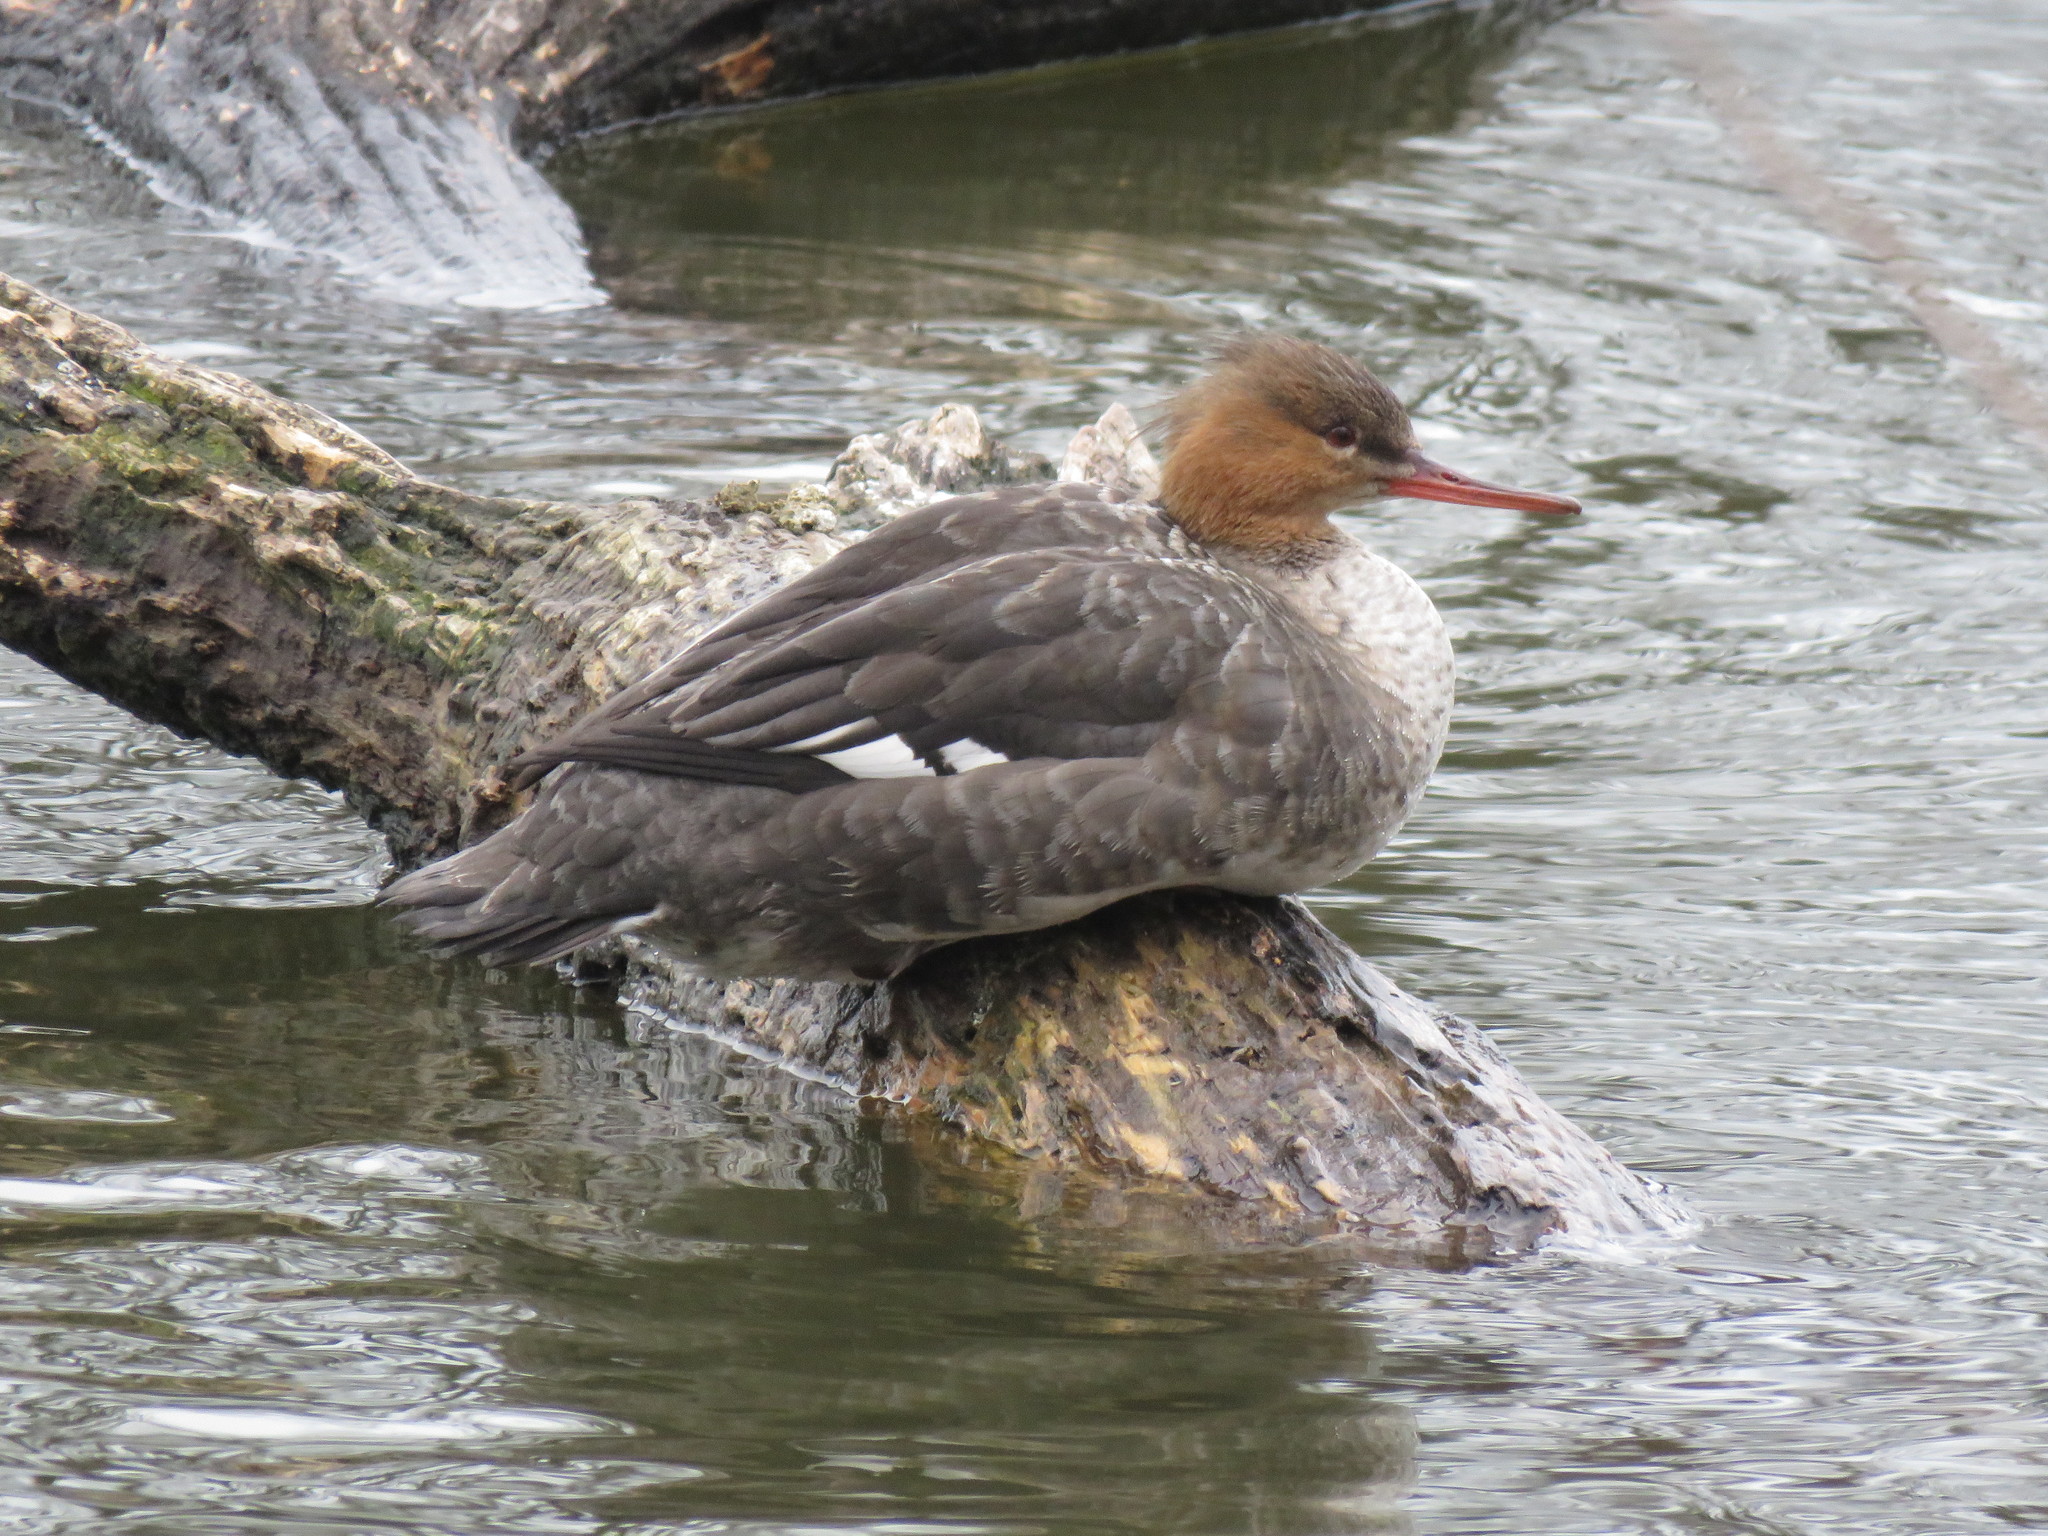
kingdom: Animalia
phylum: Chordata
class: Aves
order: Anseriformes
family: Anatidae
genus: Mergus
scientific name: Mergus serrator
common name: Red-breasted merganser
